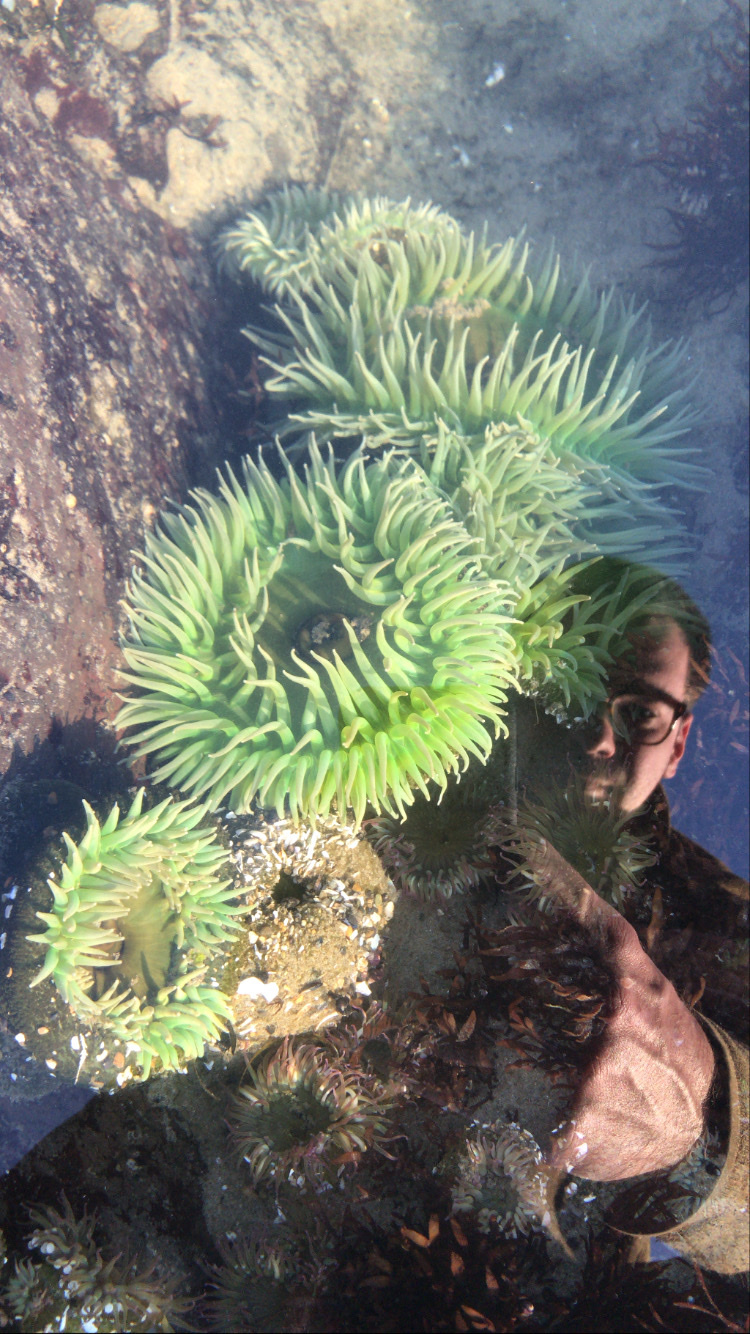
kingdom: Animalia
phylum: Cnidaria
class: Anthozoa
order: Actiniaria
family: Actiniidae
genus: Anthopleura
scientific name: Anthopleura xanthogrammica
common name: Giant green anemone
